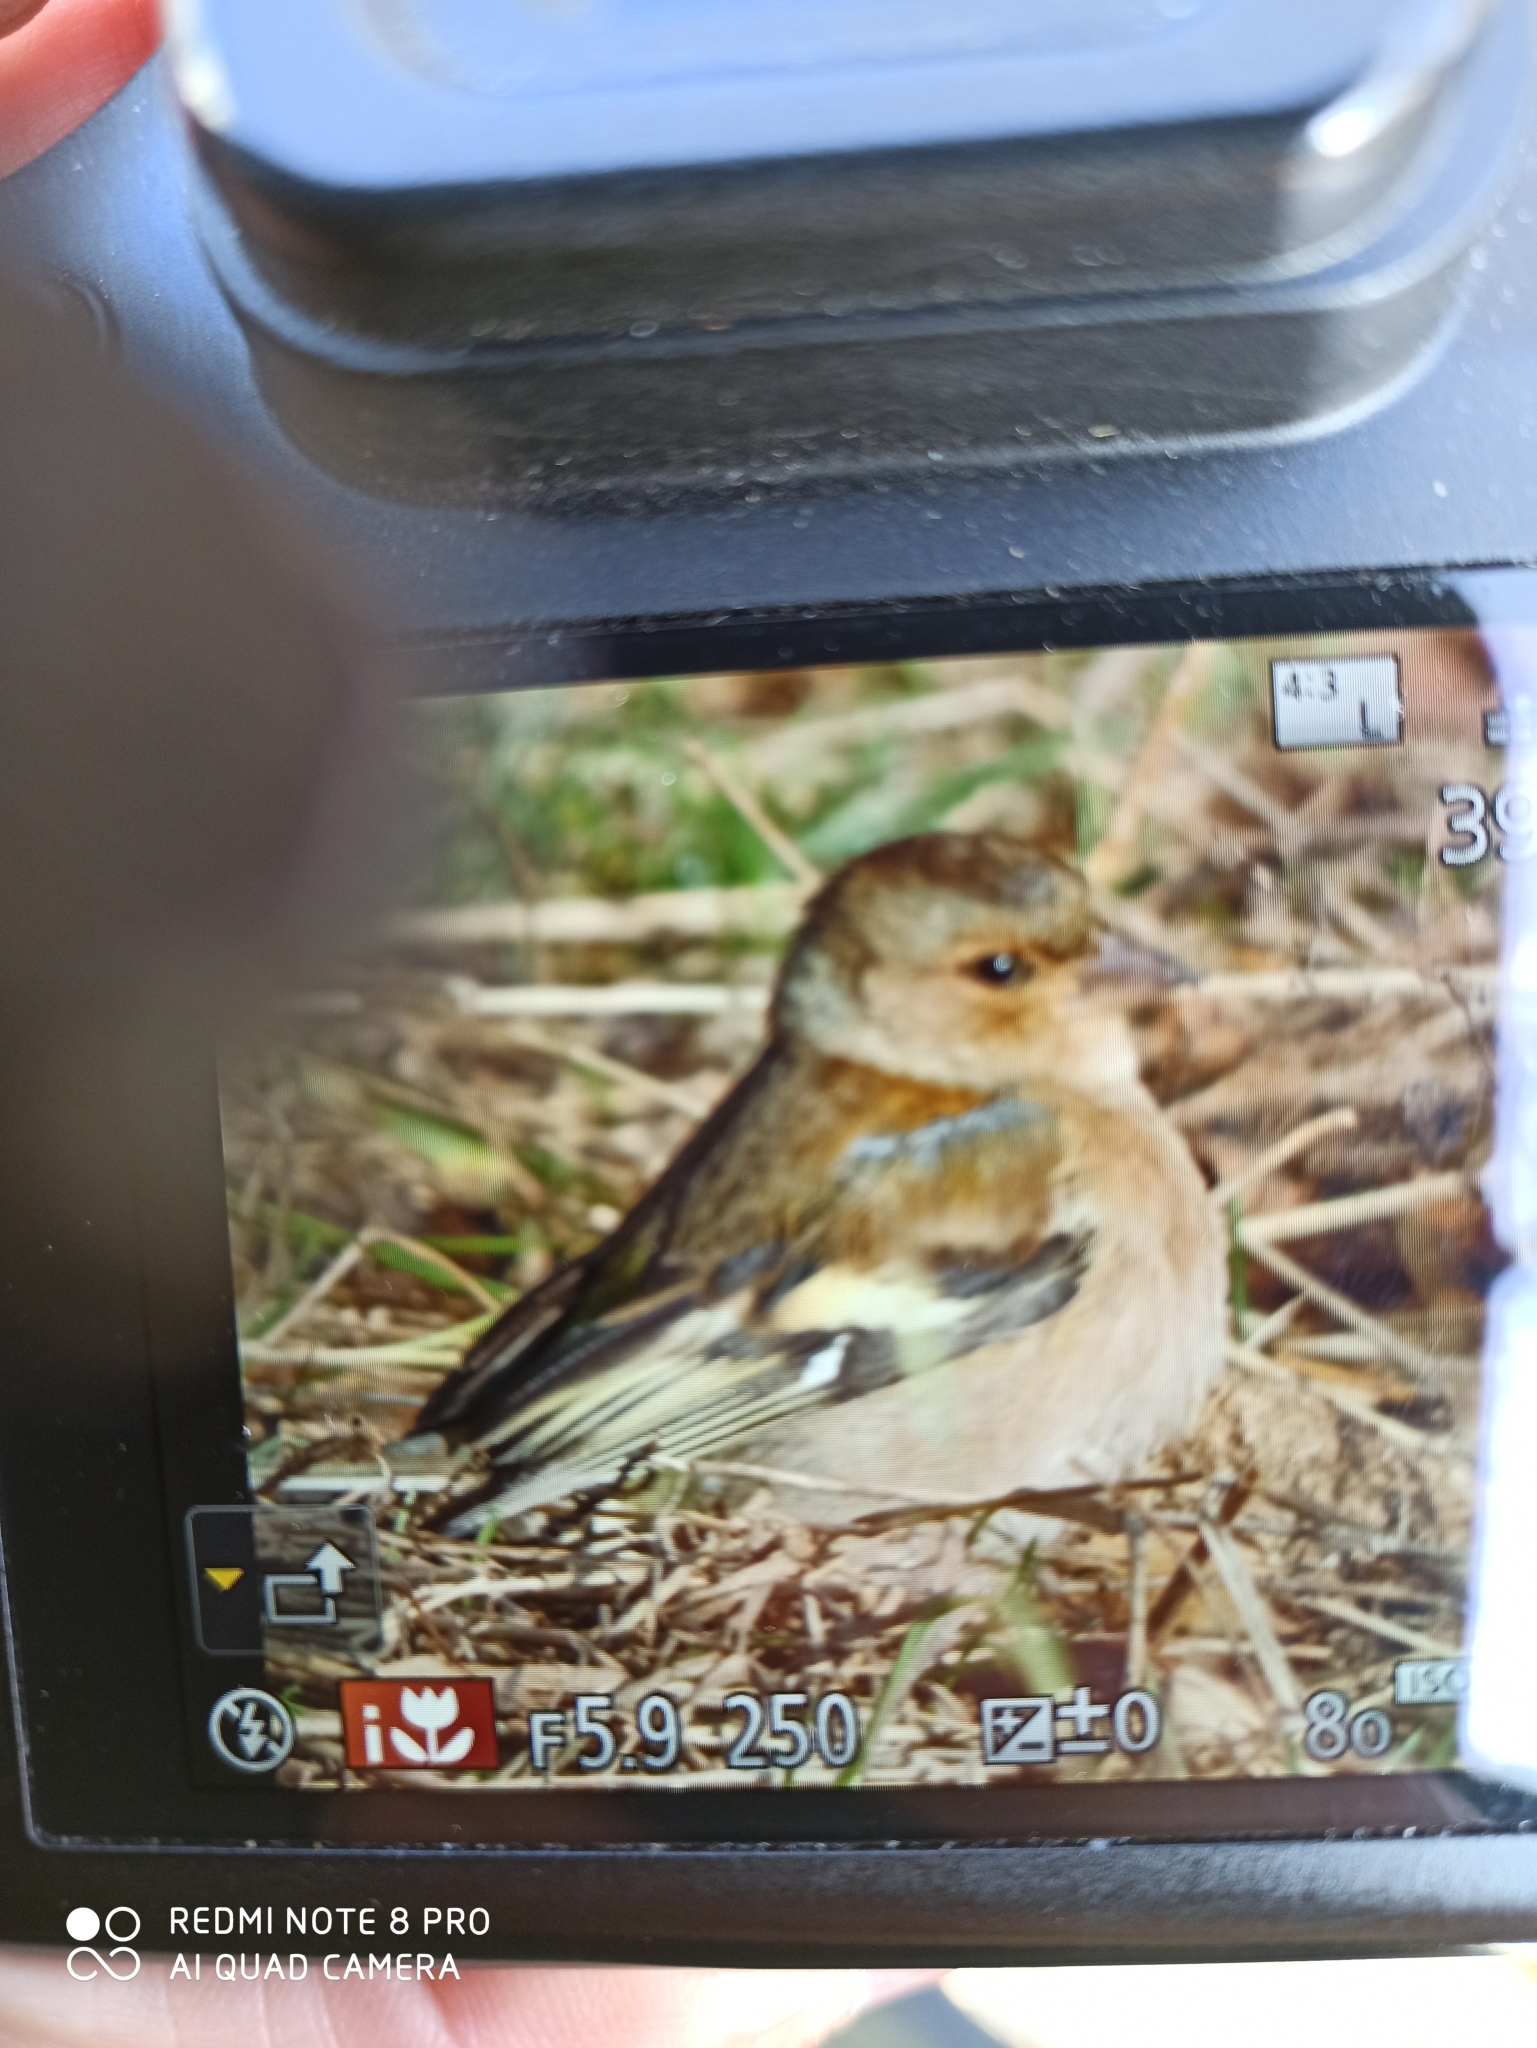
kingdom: Animalia
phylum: Chordata
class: Aves
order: Passeriformes
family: Fringillidae
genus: Fringilla
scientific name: Fringilla coelebs
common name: Common chaffinch
